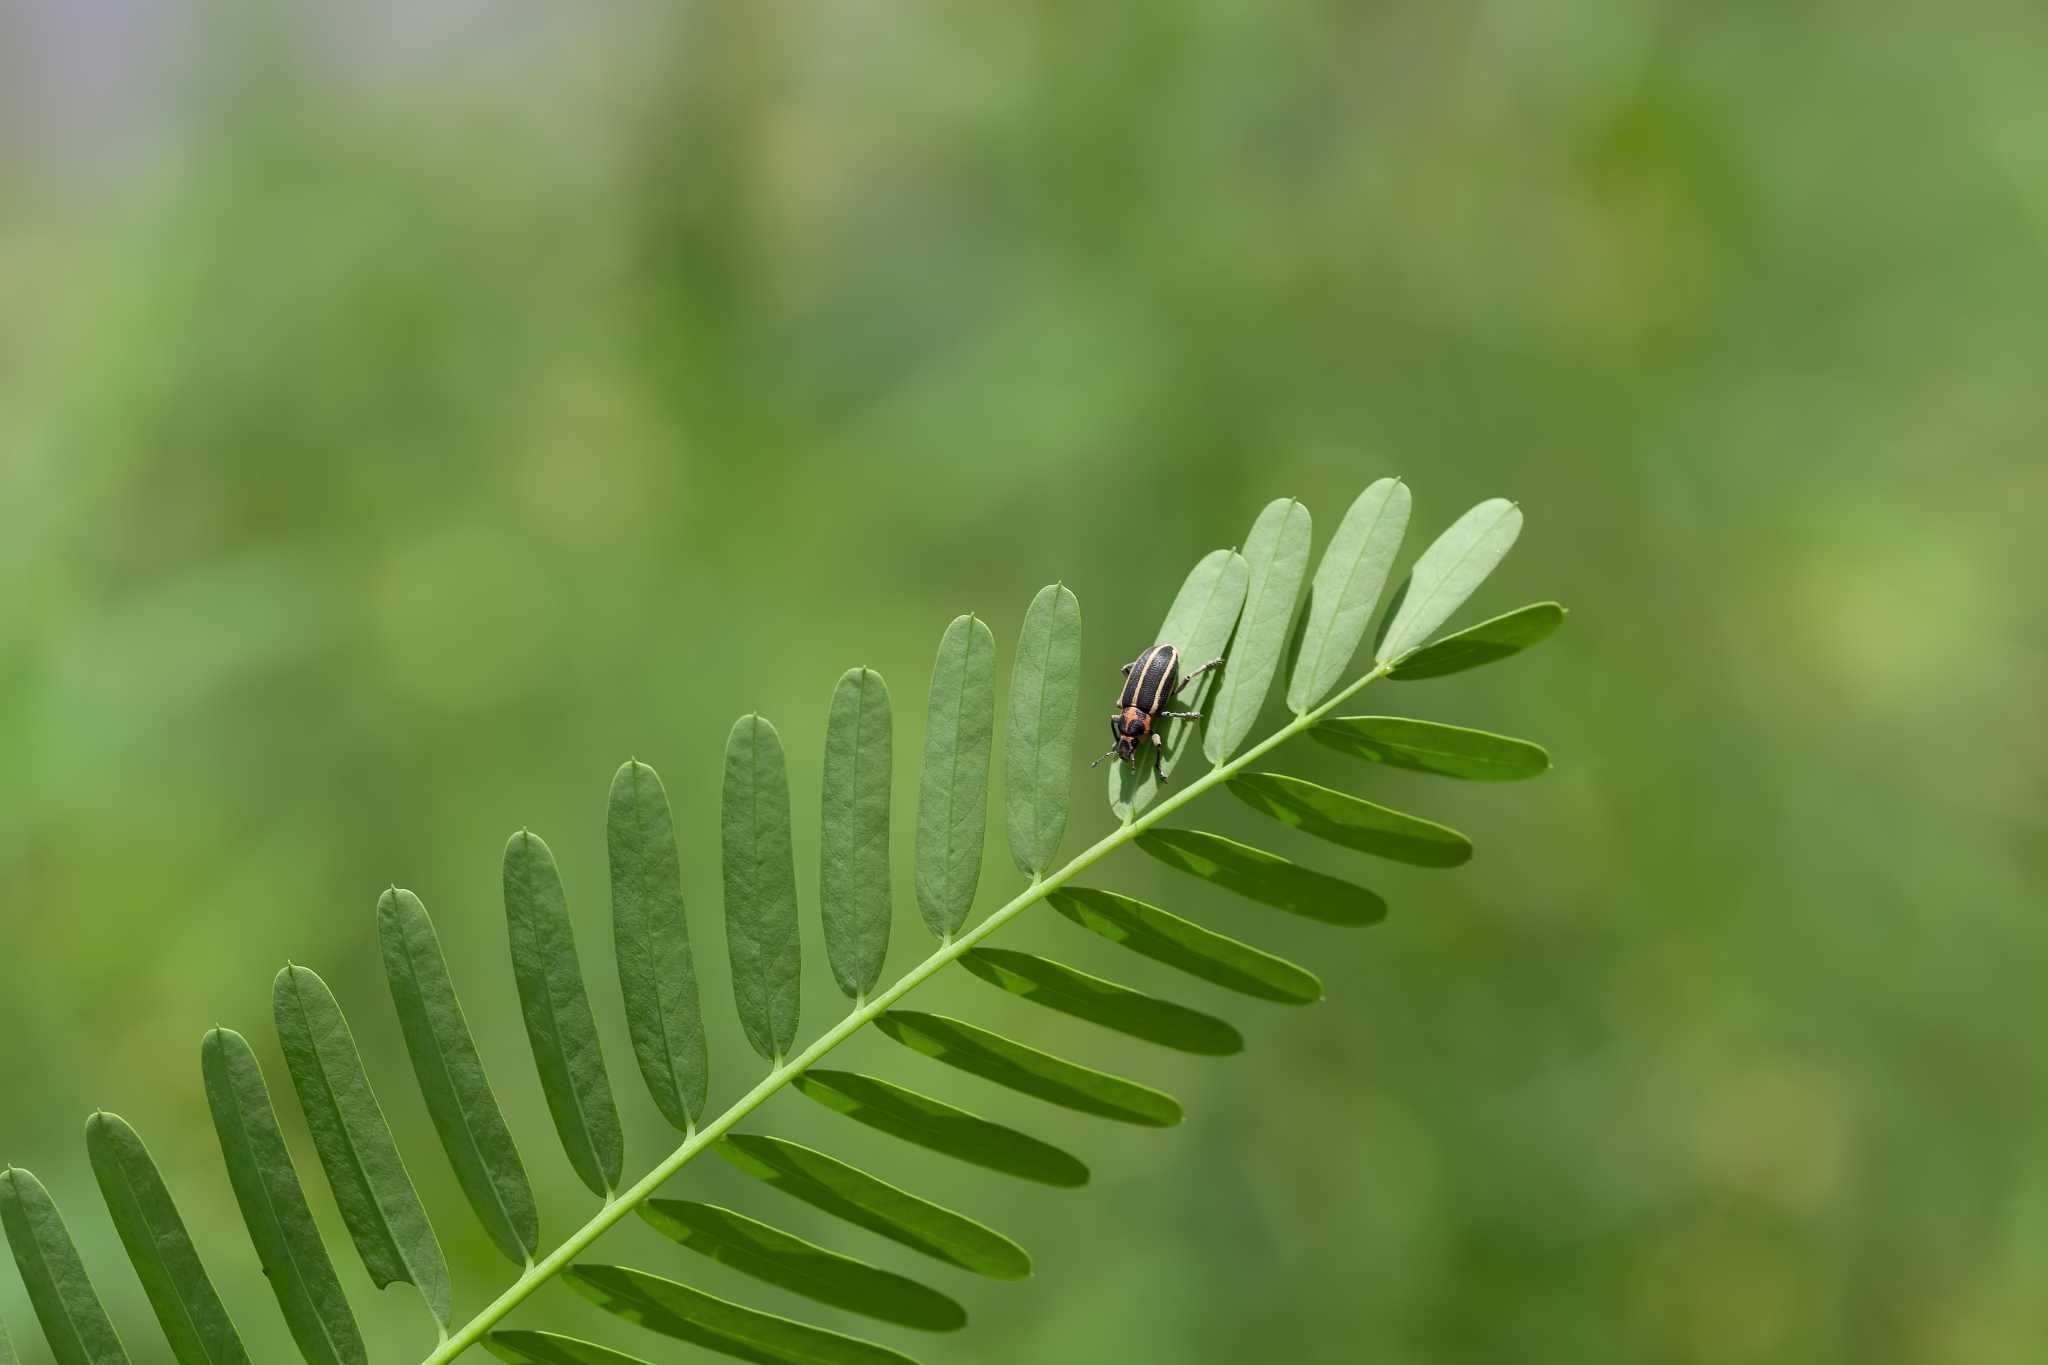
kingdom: Animalia
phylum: Arthropoda
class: Insecta
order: Coleoptera
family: Curculionidae
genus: Eudiagogus
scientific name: Eudiagogus maryae
